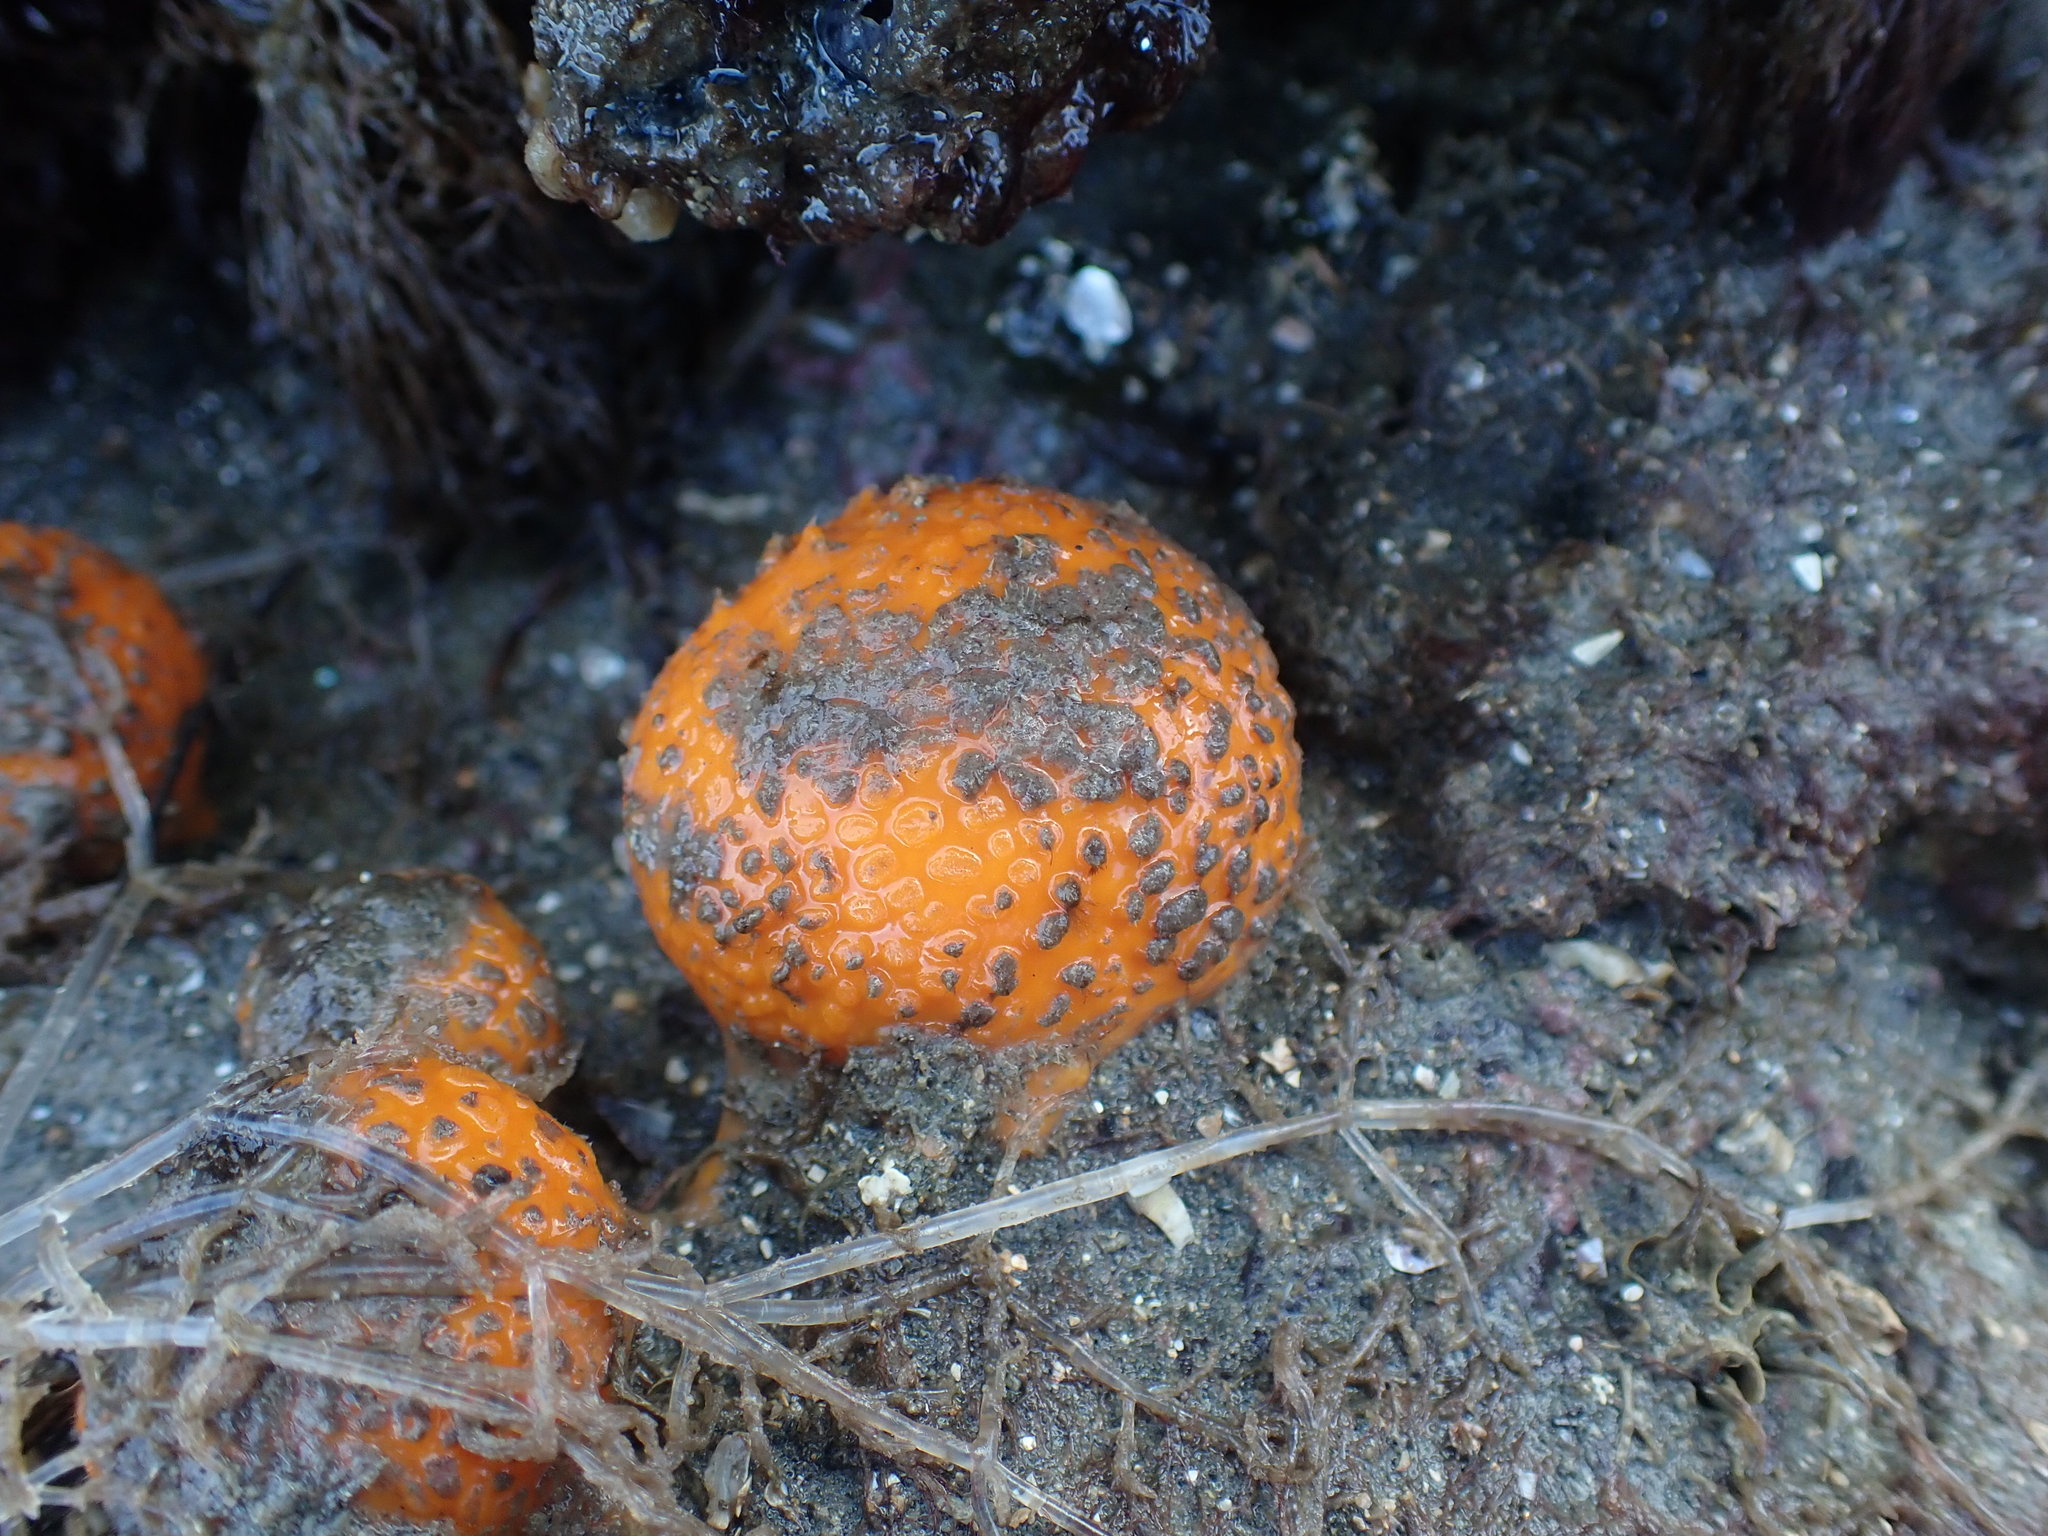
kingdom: Animalia
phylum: Porifera
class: Demospongiae
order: Tethyida
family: Tethyidae
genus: Tethya
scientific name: Tethya burtoni
